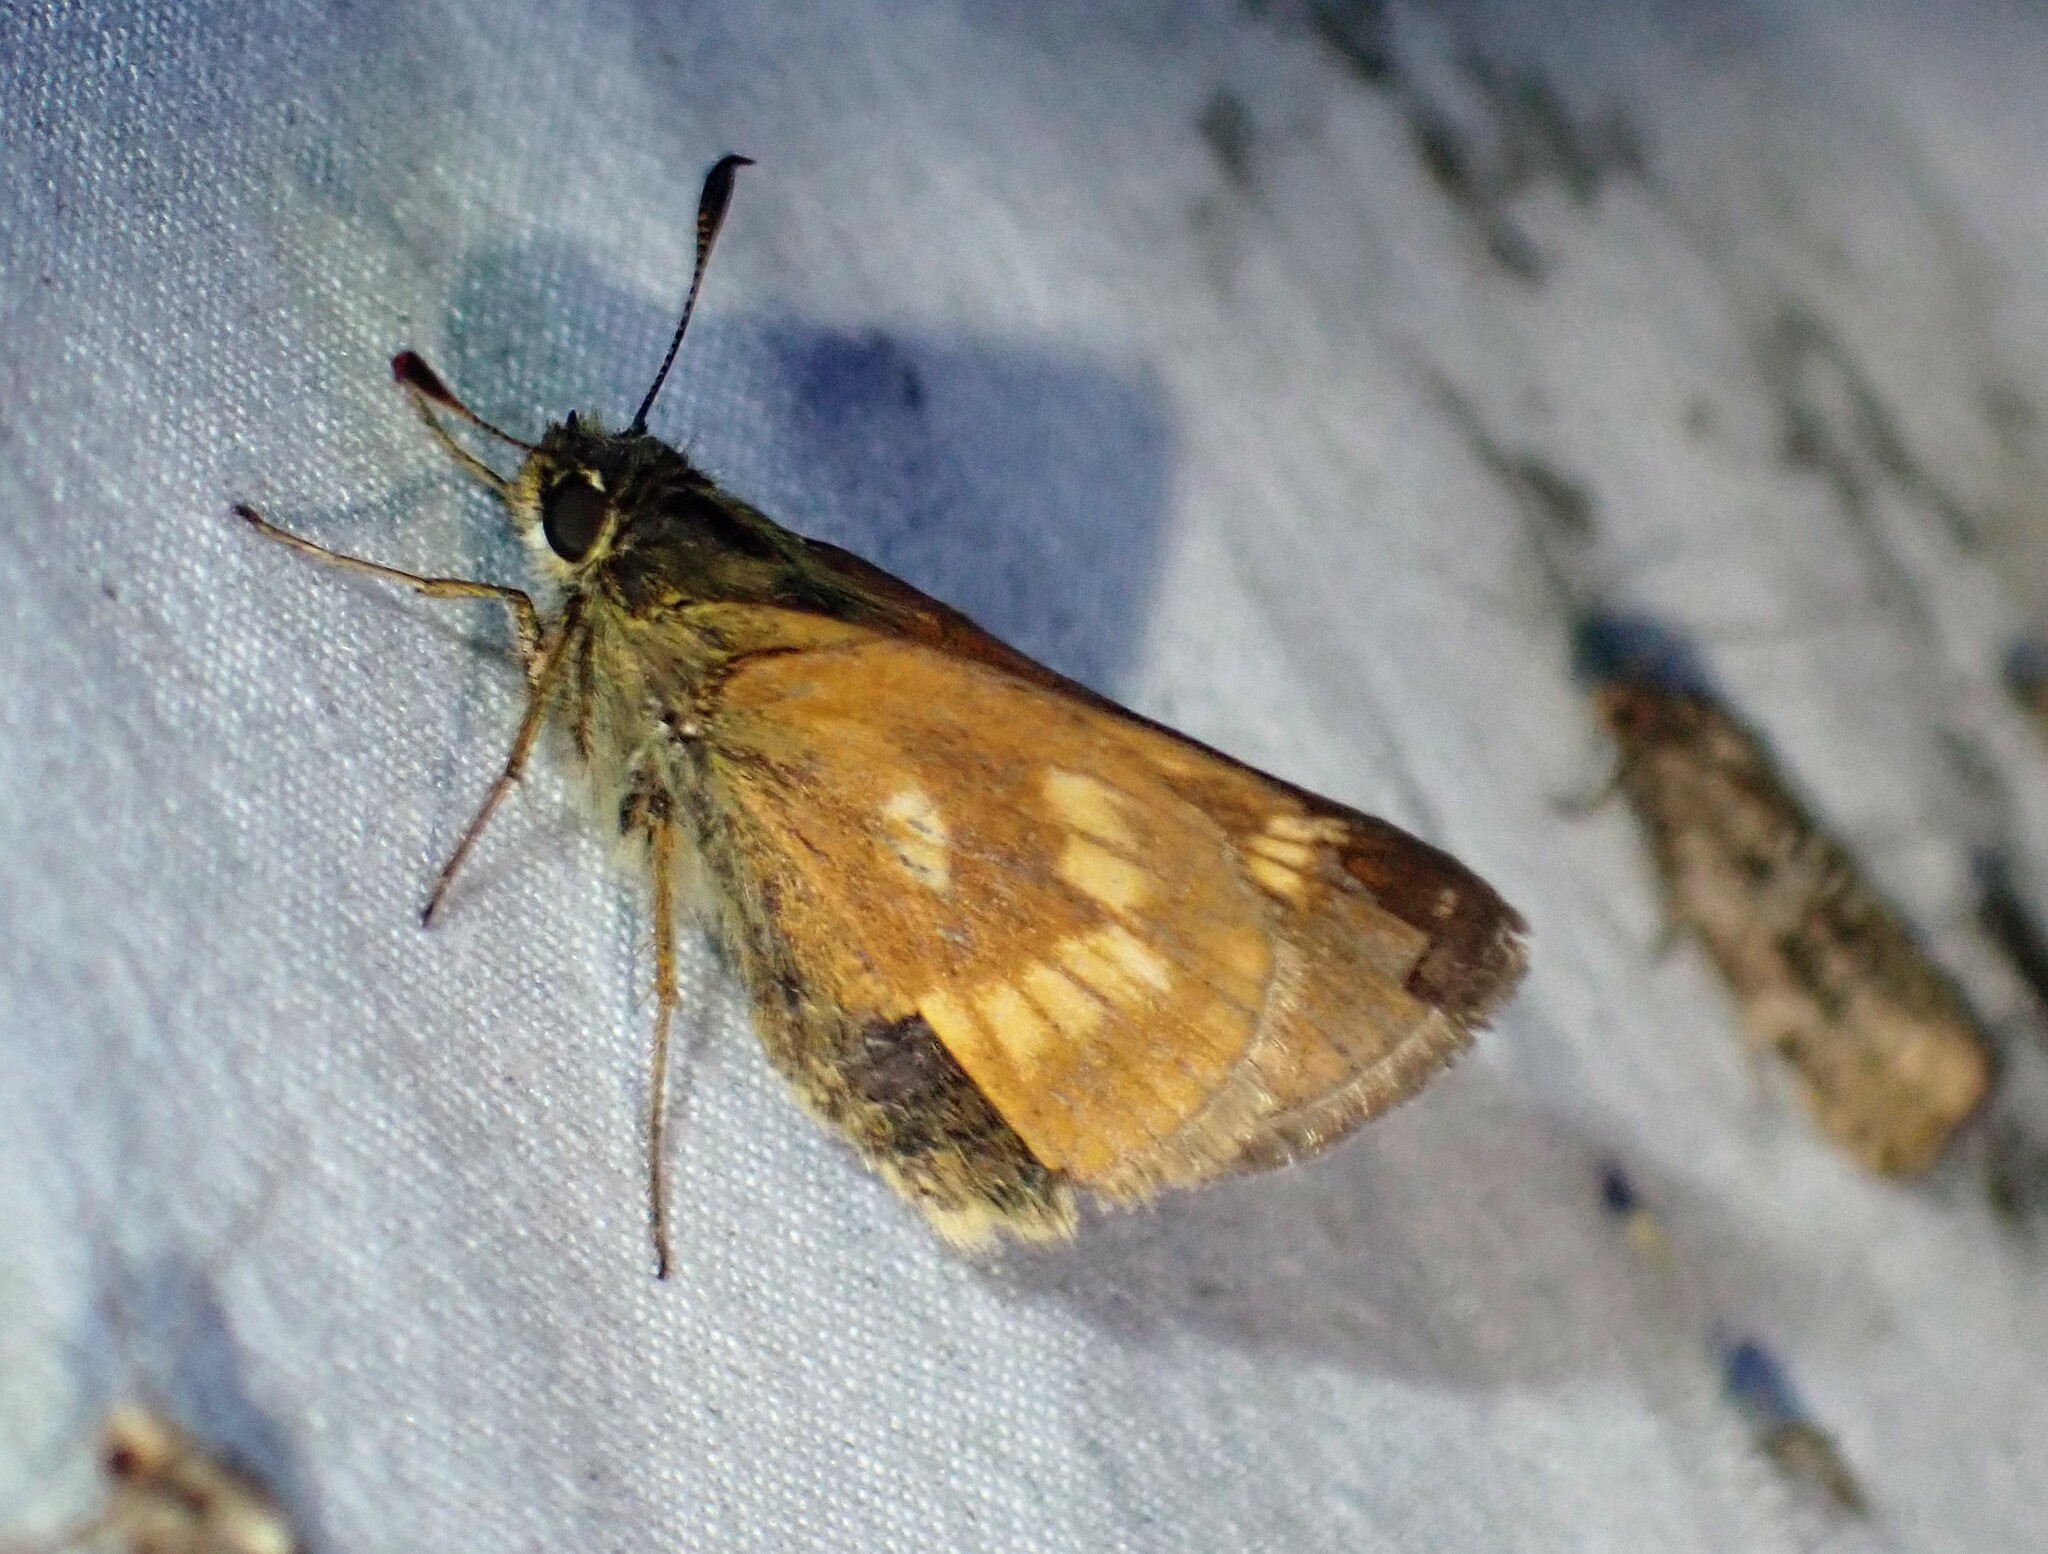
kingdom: Animalia
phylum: Arthropoda
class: Insecta
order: Lepidoptera
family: Hesperiidae
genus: Polites
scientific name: Polites mystic
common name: Long dash
